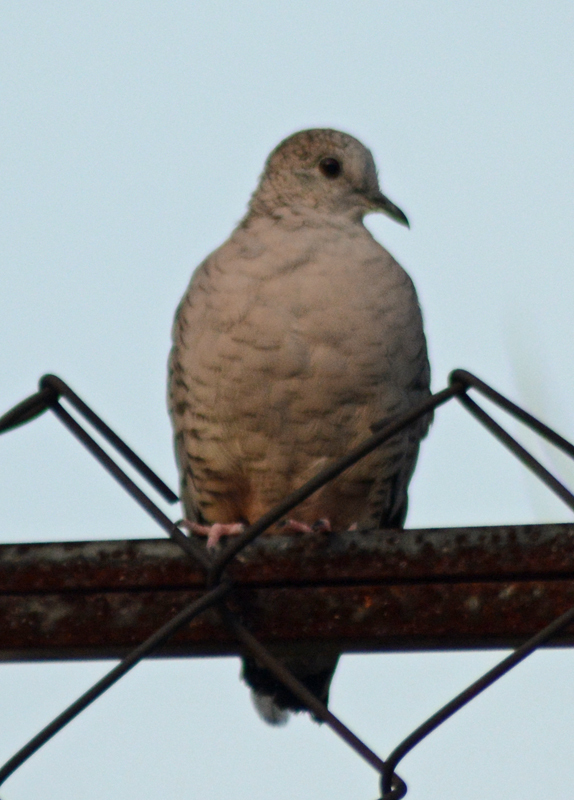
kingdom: Animalia
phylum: Chordata
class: Aves
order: Columbiformes
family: Columbidae
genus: Columbina
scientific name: Columbina inca
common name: Inca dove
